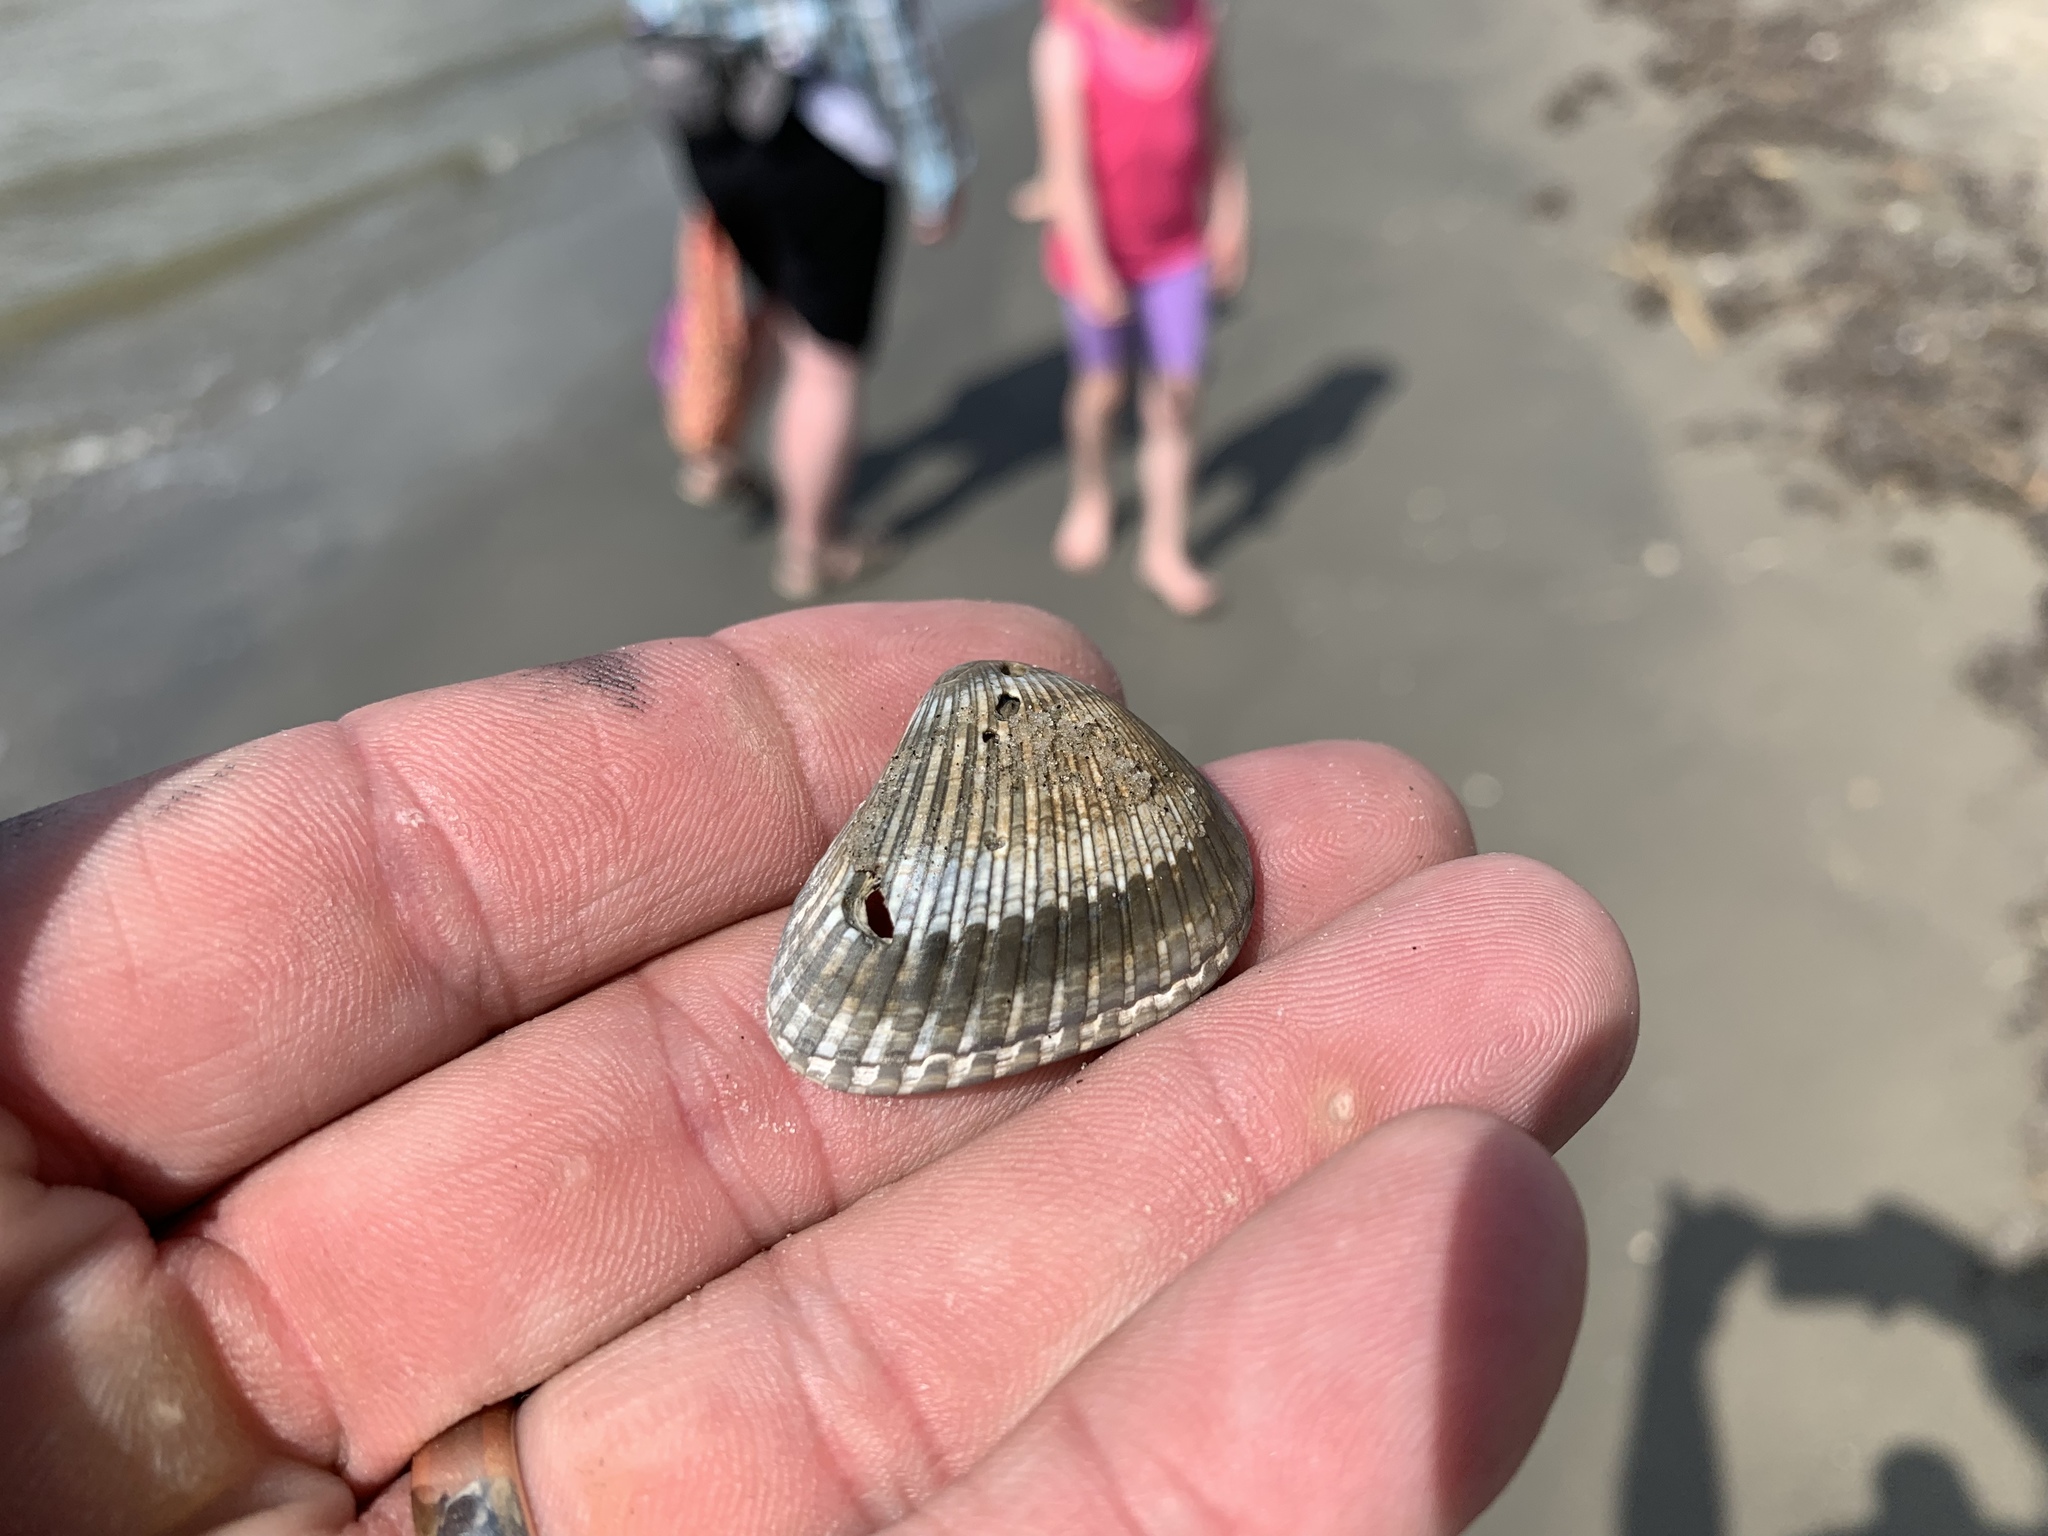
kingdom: Animalia
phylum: Mollusca
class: Bivalvia
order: Arcida
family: Noetiidae
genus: Noetia
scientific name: Noetia ponderosa
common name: Ponderous ark
